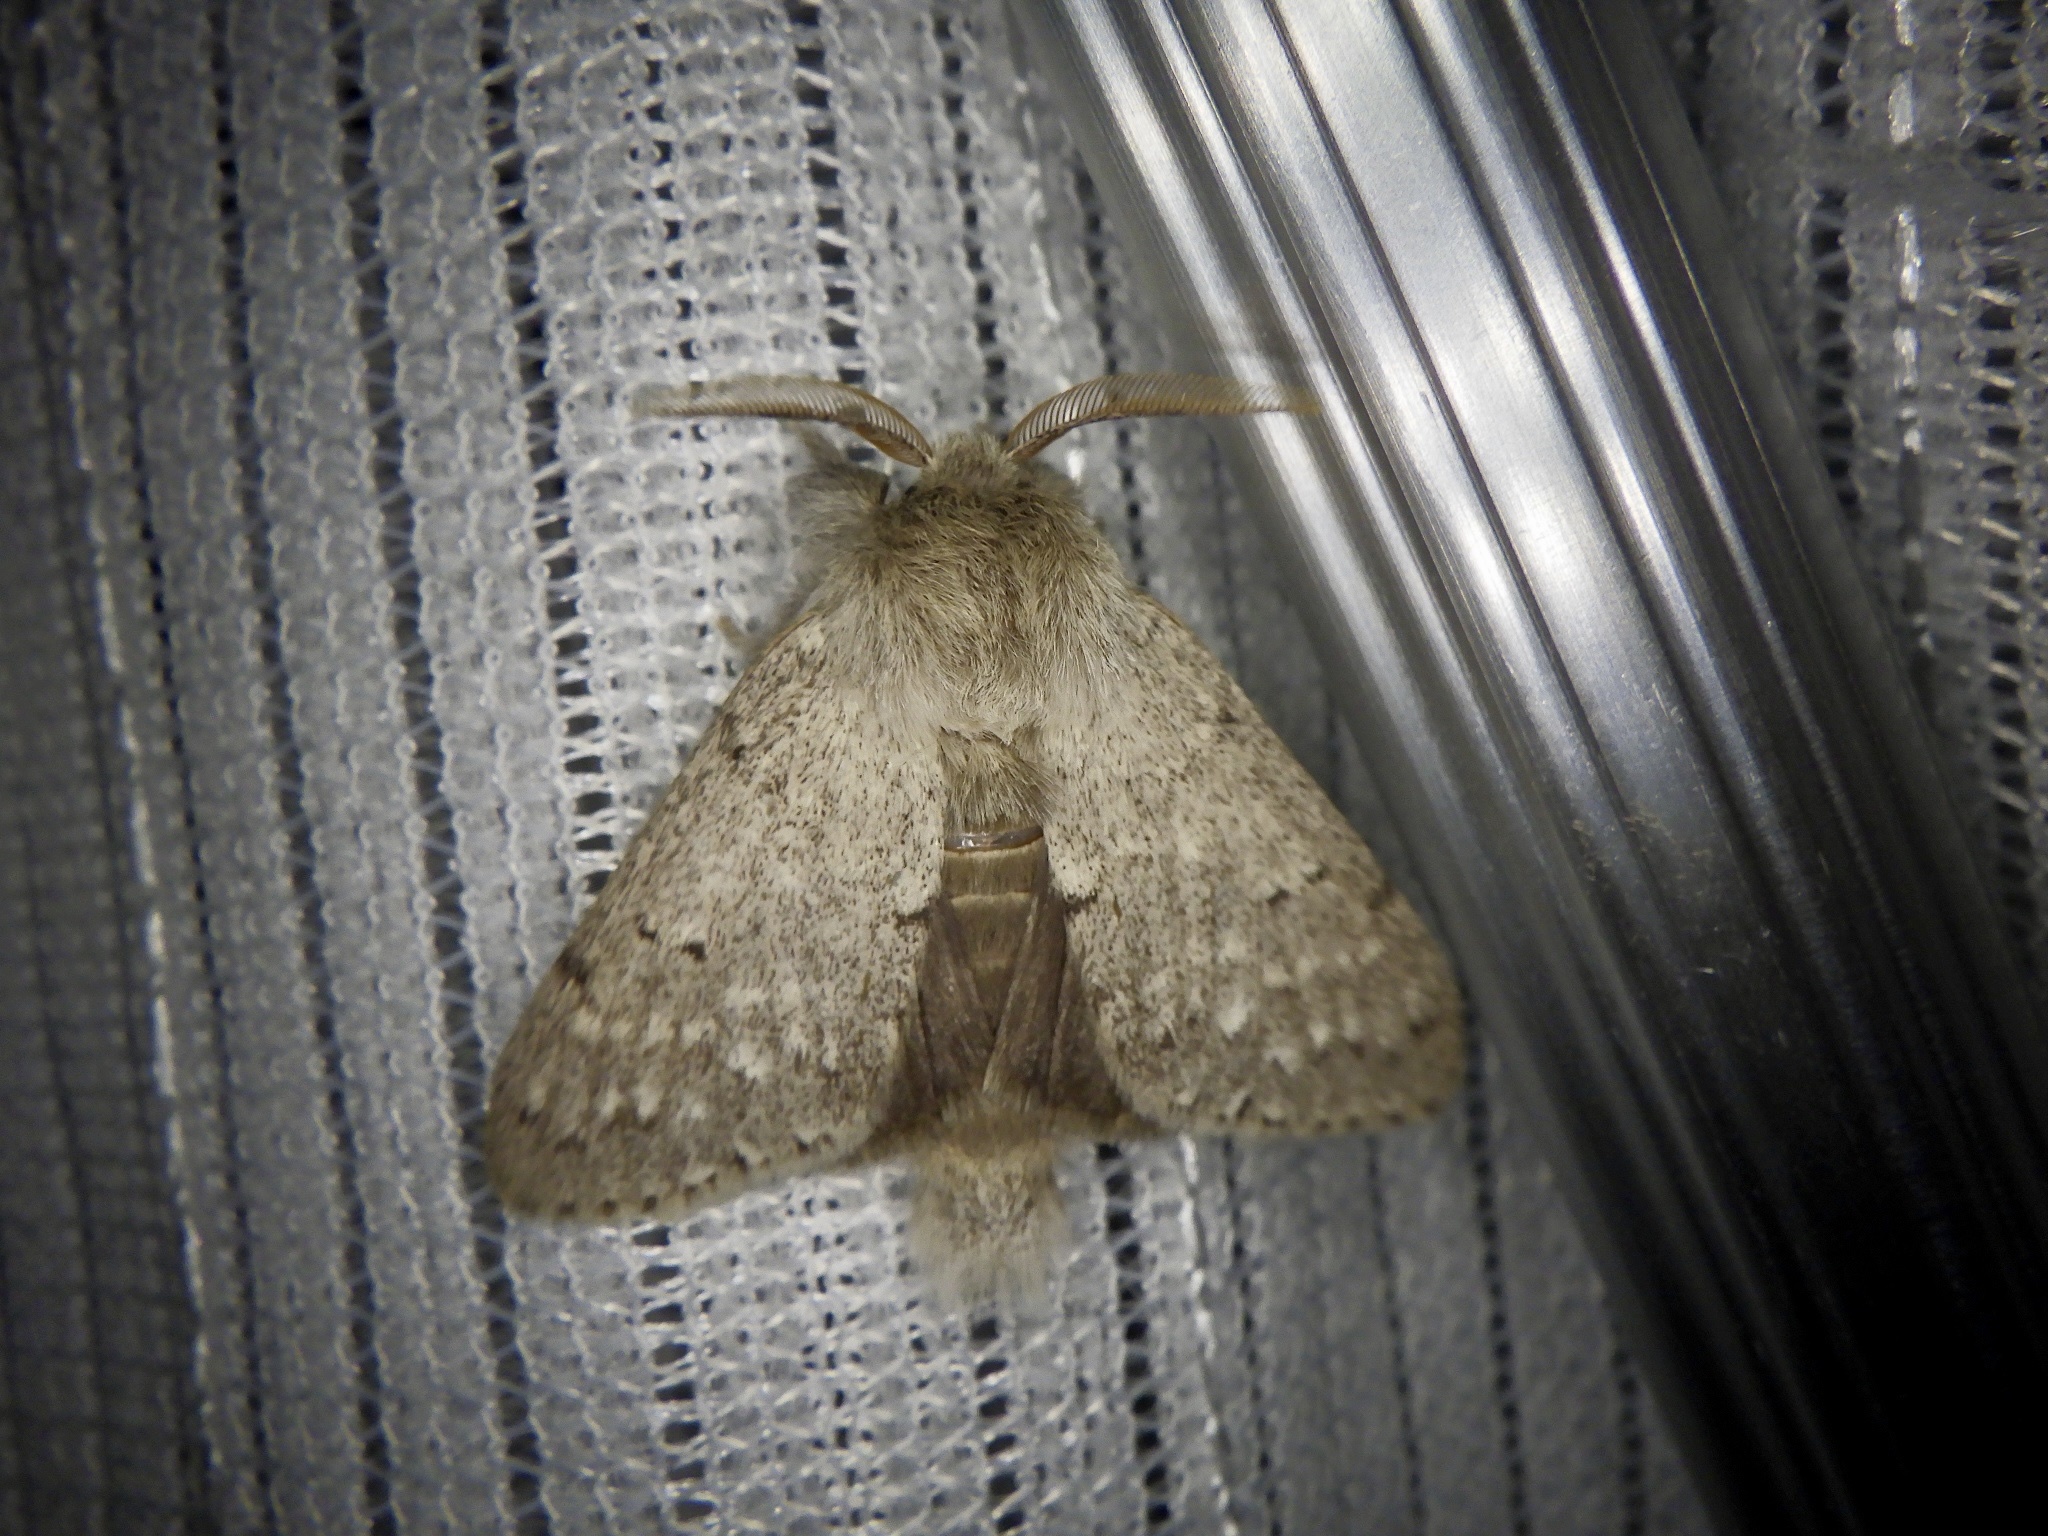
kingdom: Animalia
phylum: Arthropoda
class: Insecta
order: Lepidoptera
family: Notodontidae
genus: Cnethodonta
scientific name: Cnethodonta grisescens
